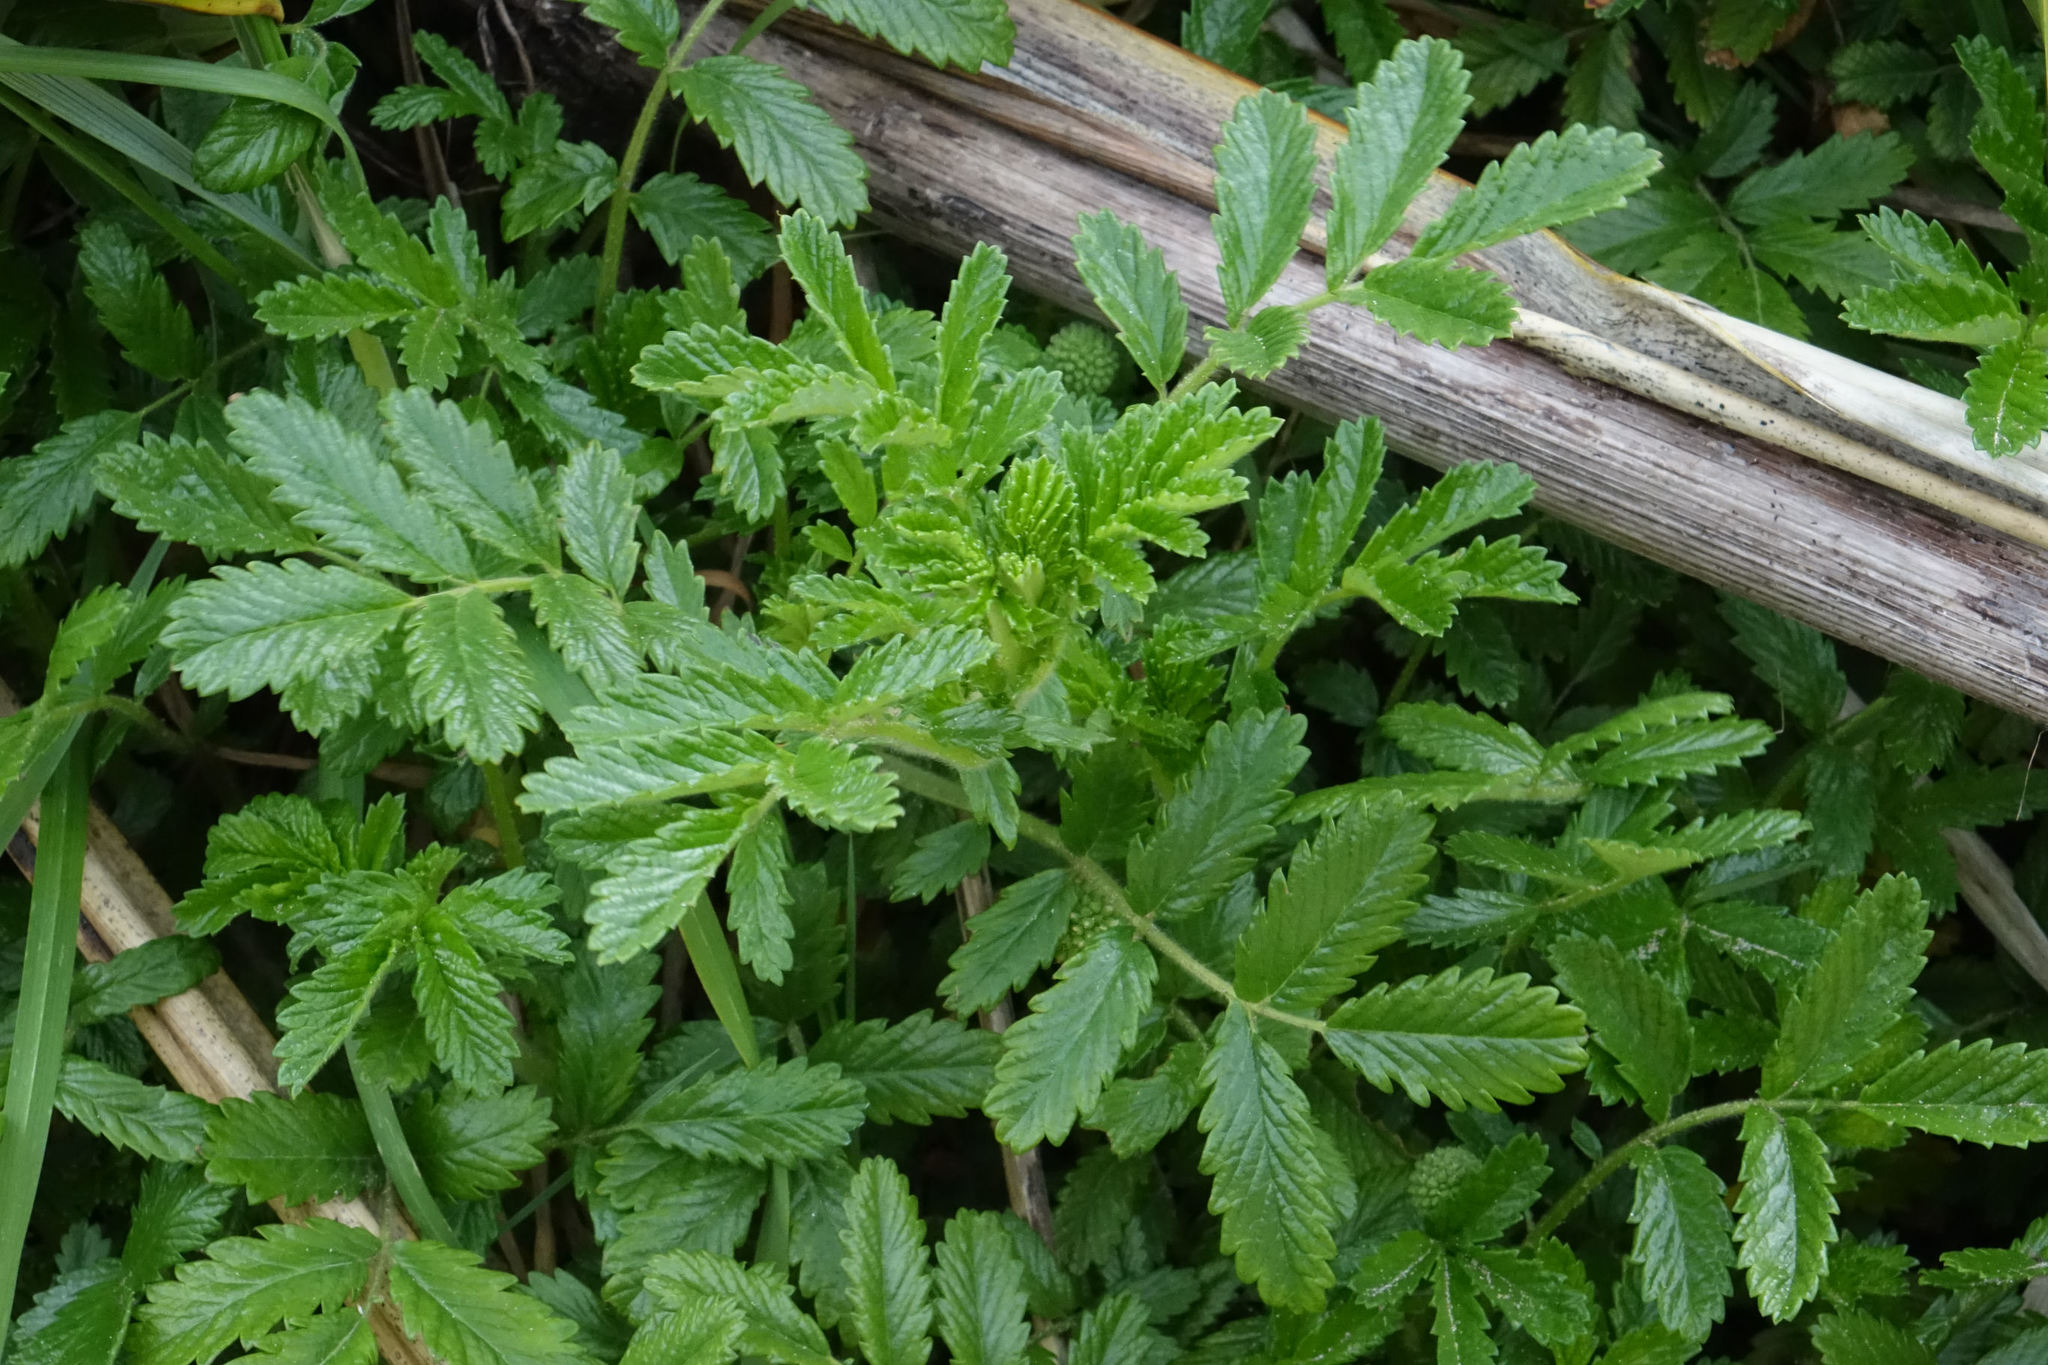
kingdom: Plantae
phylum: Tracheophyta
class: Magnoliopsida
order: Rosales
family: Rosaceae
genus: Acaena
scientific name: Acaena pallida
